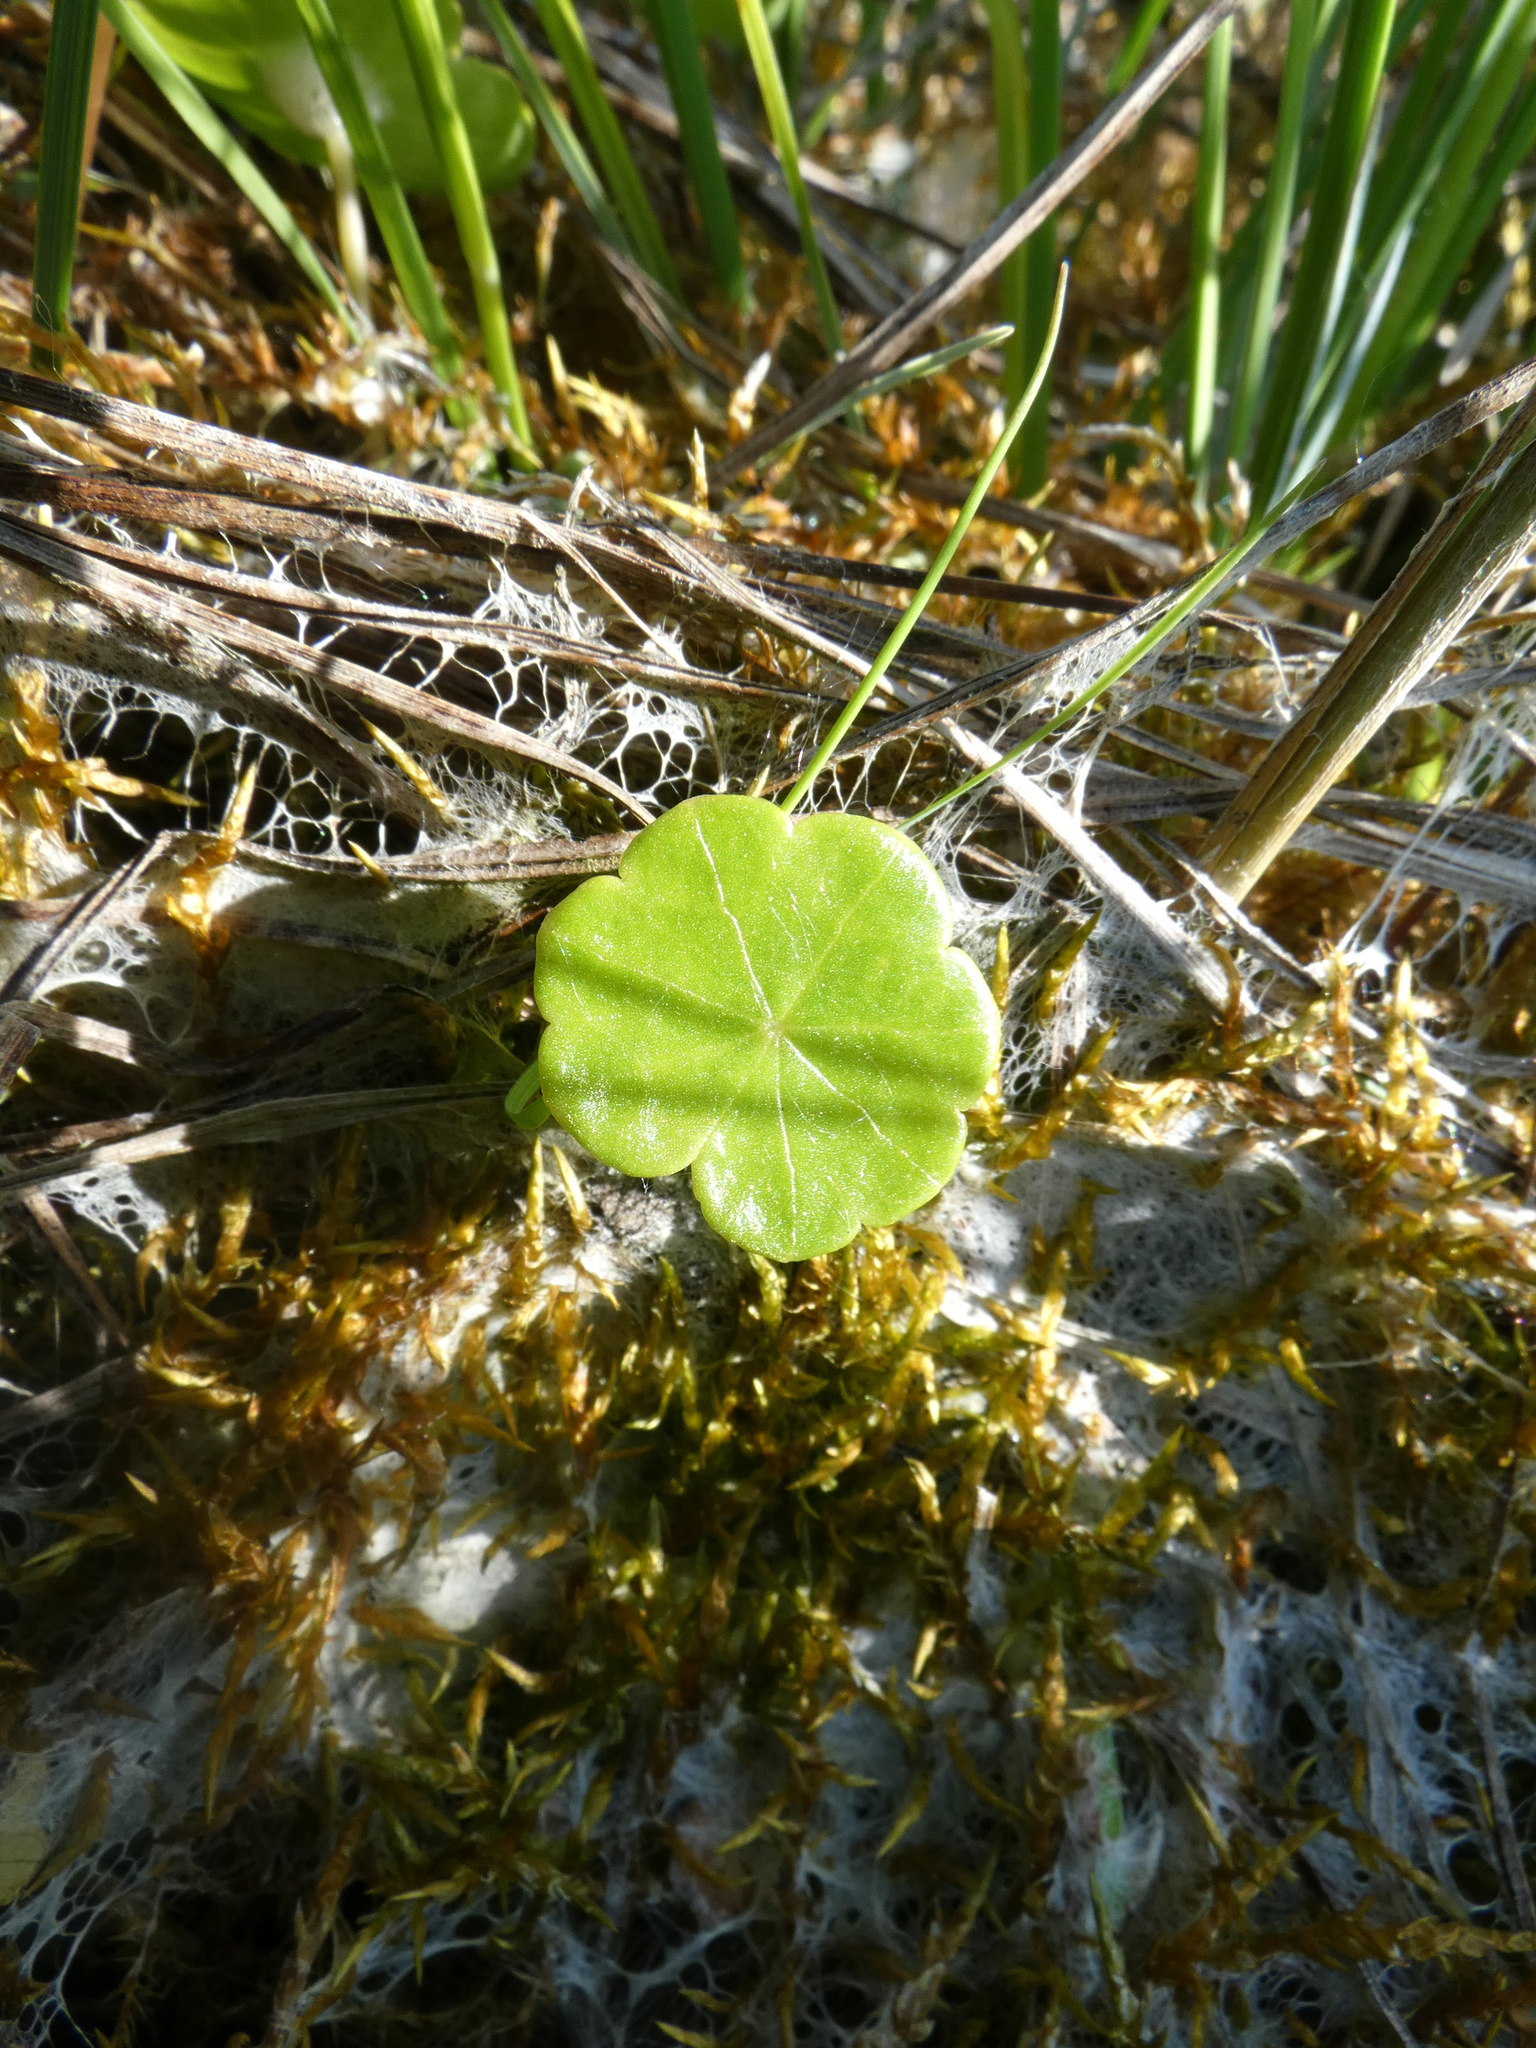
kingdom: Plantae
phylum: Tracheophyta
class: Magnoliopsida
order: Apiales
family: Araliaceae
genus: Hydrocotyle
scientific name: Hydrocotyle vulgaris
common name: Marsh pennywort
